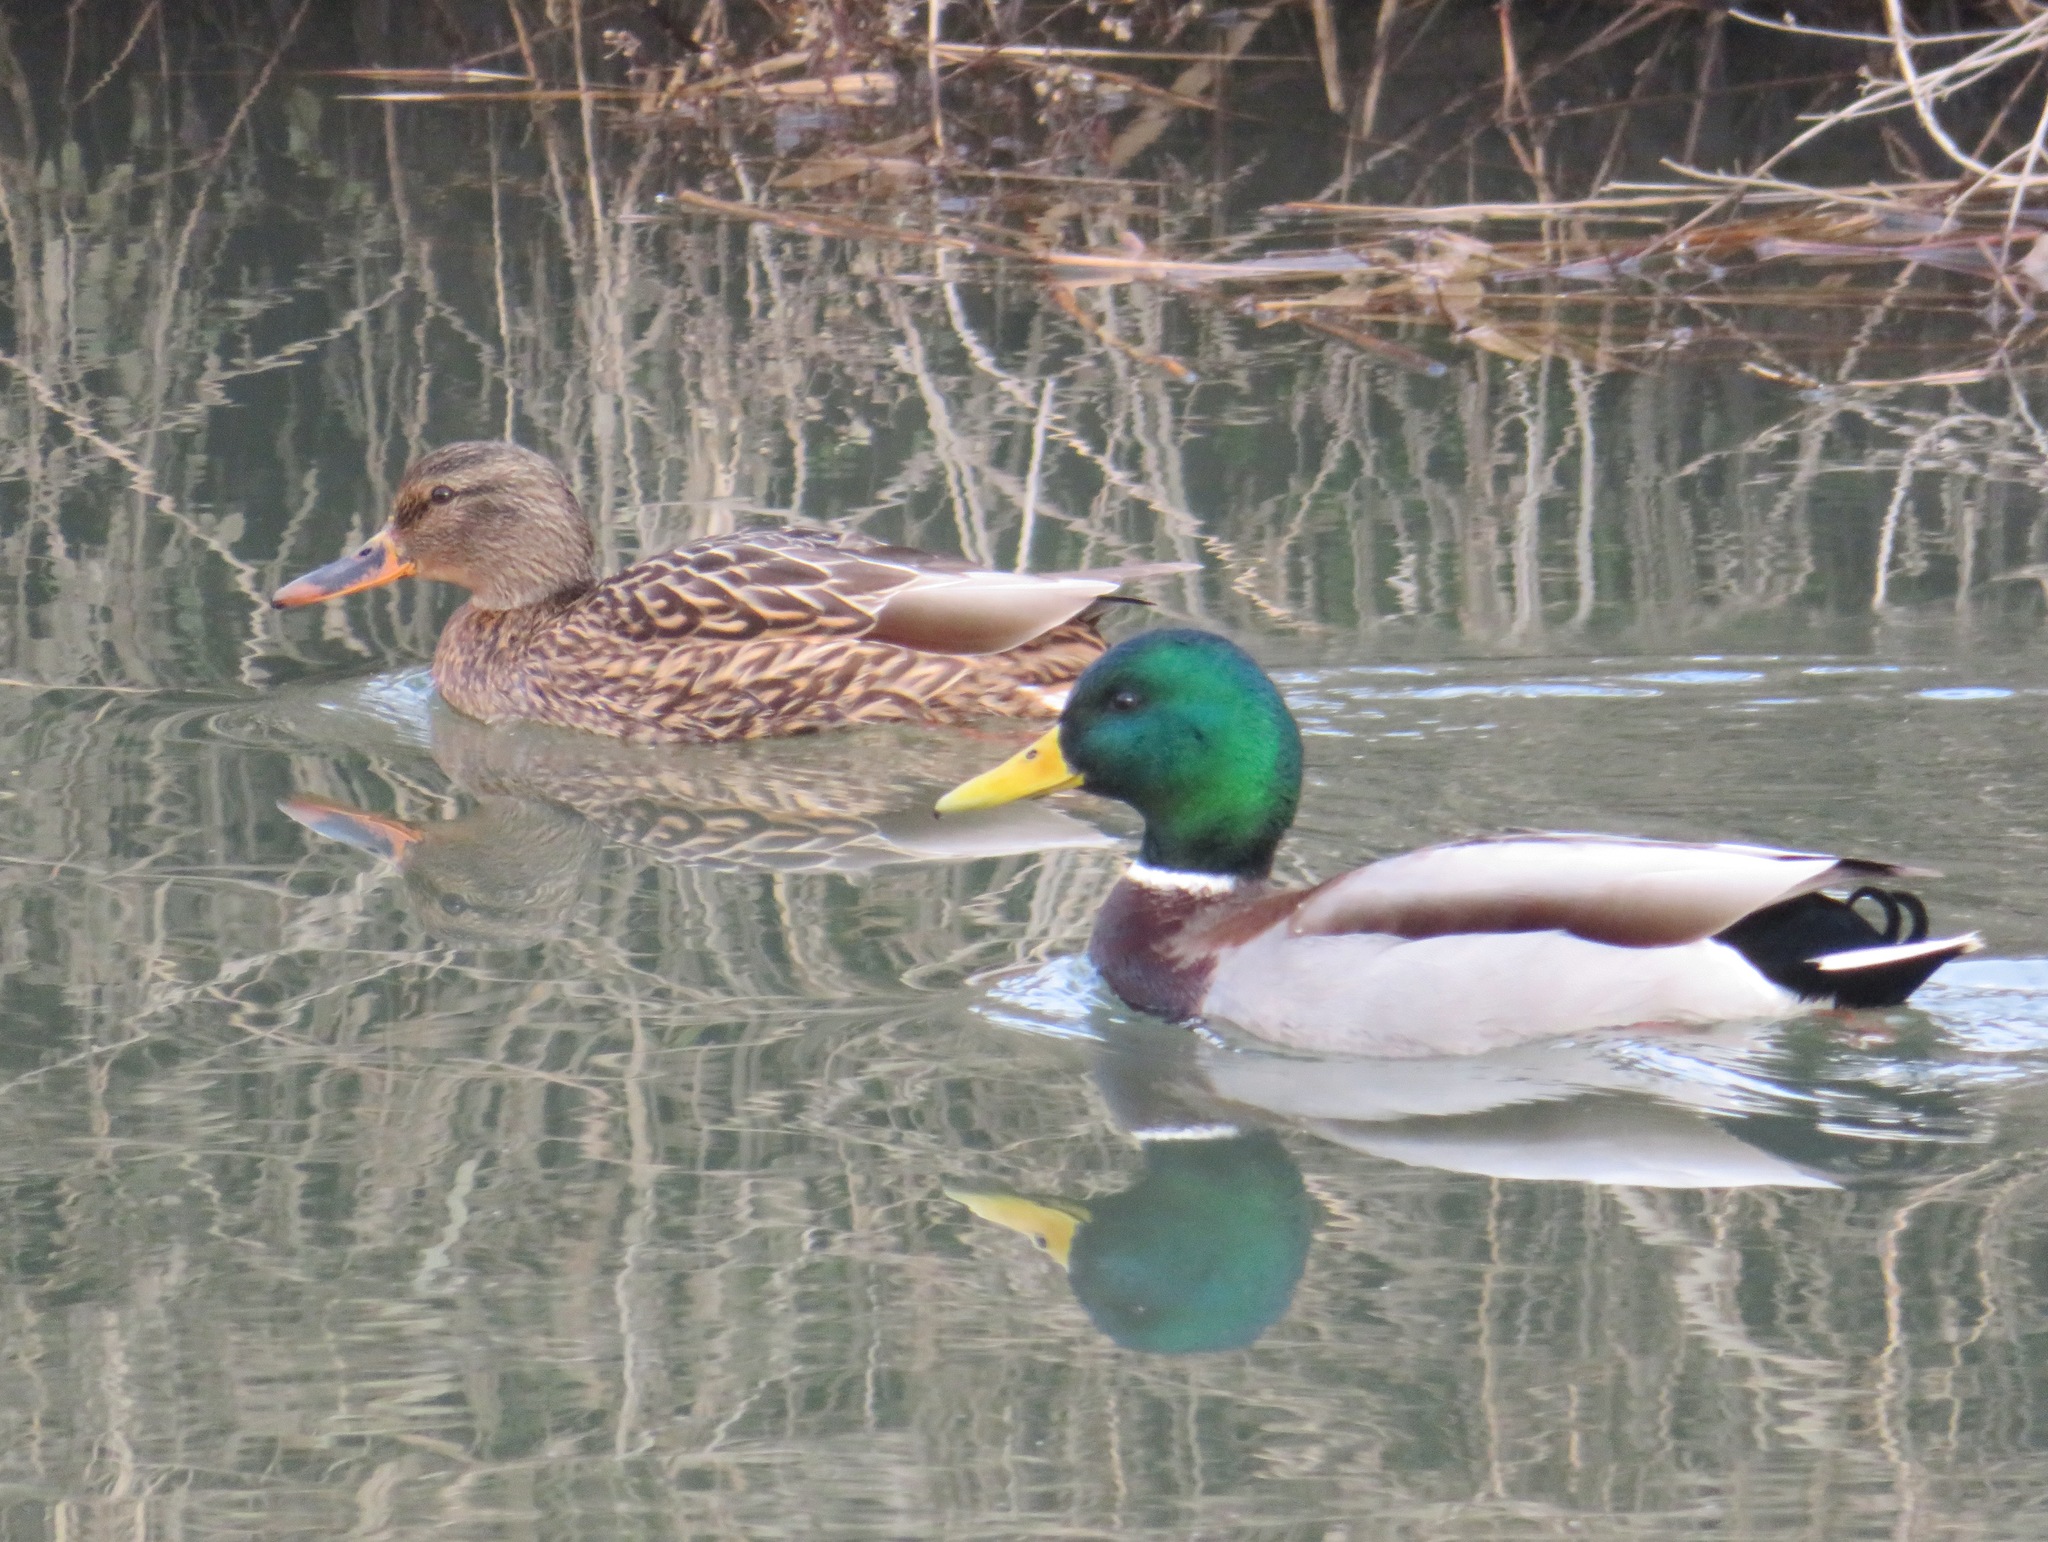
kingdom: Animalia
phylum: Chordata
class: Aves
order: Anseriformes
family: Anatidae
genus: Anas
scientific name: Anas platyrhynchos
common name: Mallard
